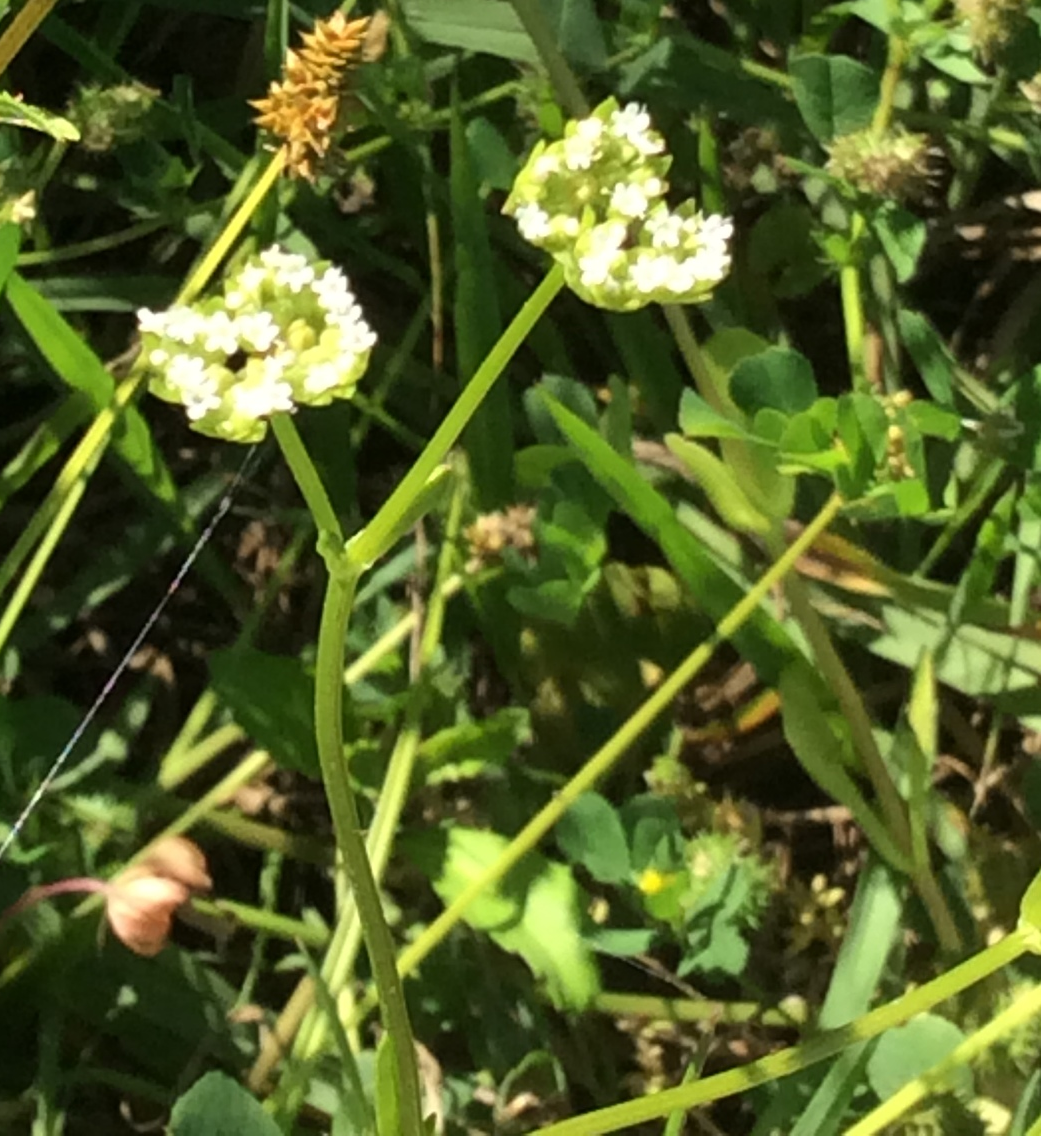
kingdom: Plantae
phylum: Tracheophyta
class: Magnoliopsida
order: Dipsacales
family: Caprifoliaceae
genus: Valerianella
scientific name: Valerianella radiata
